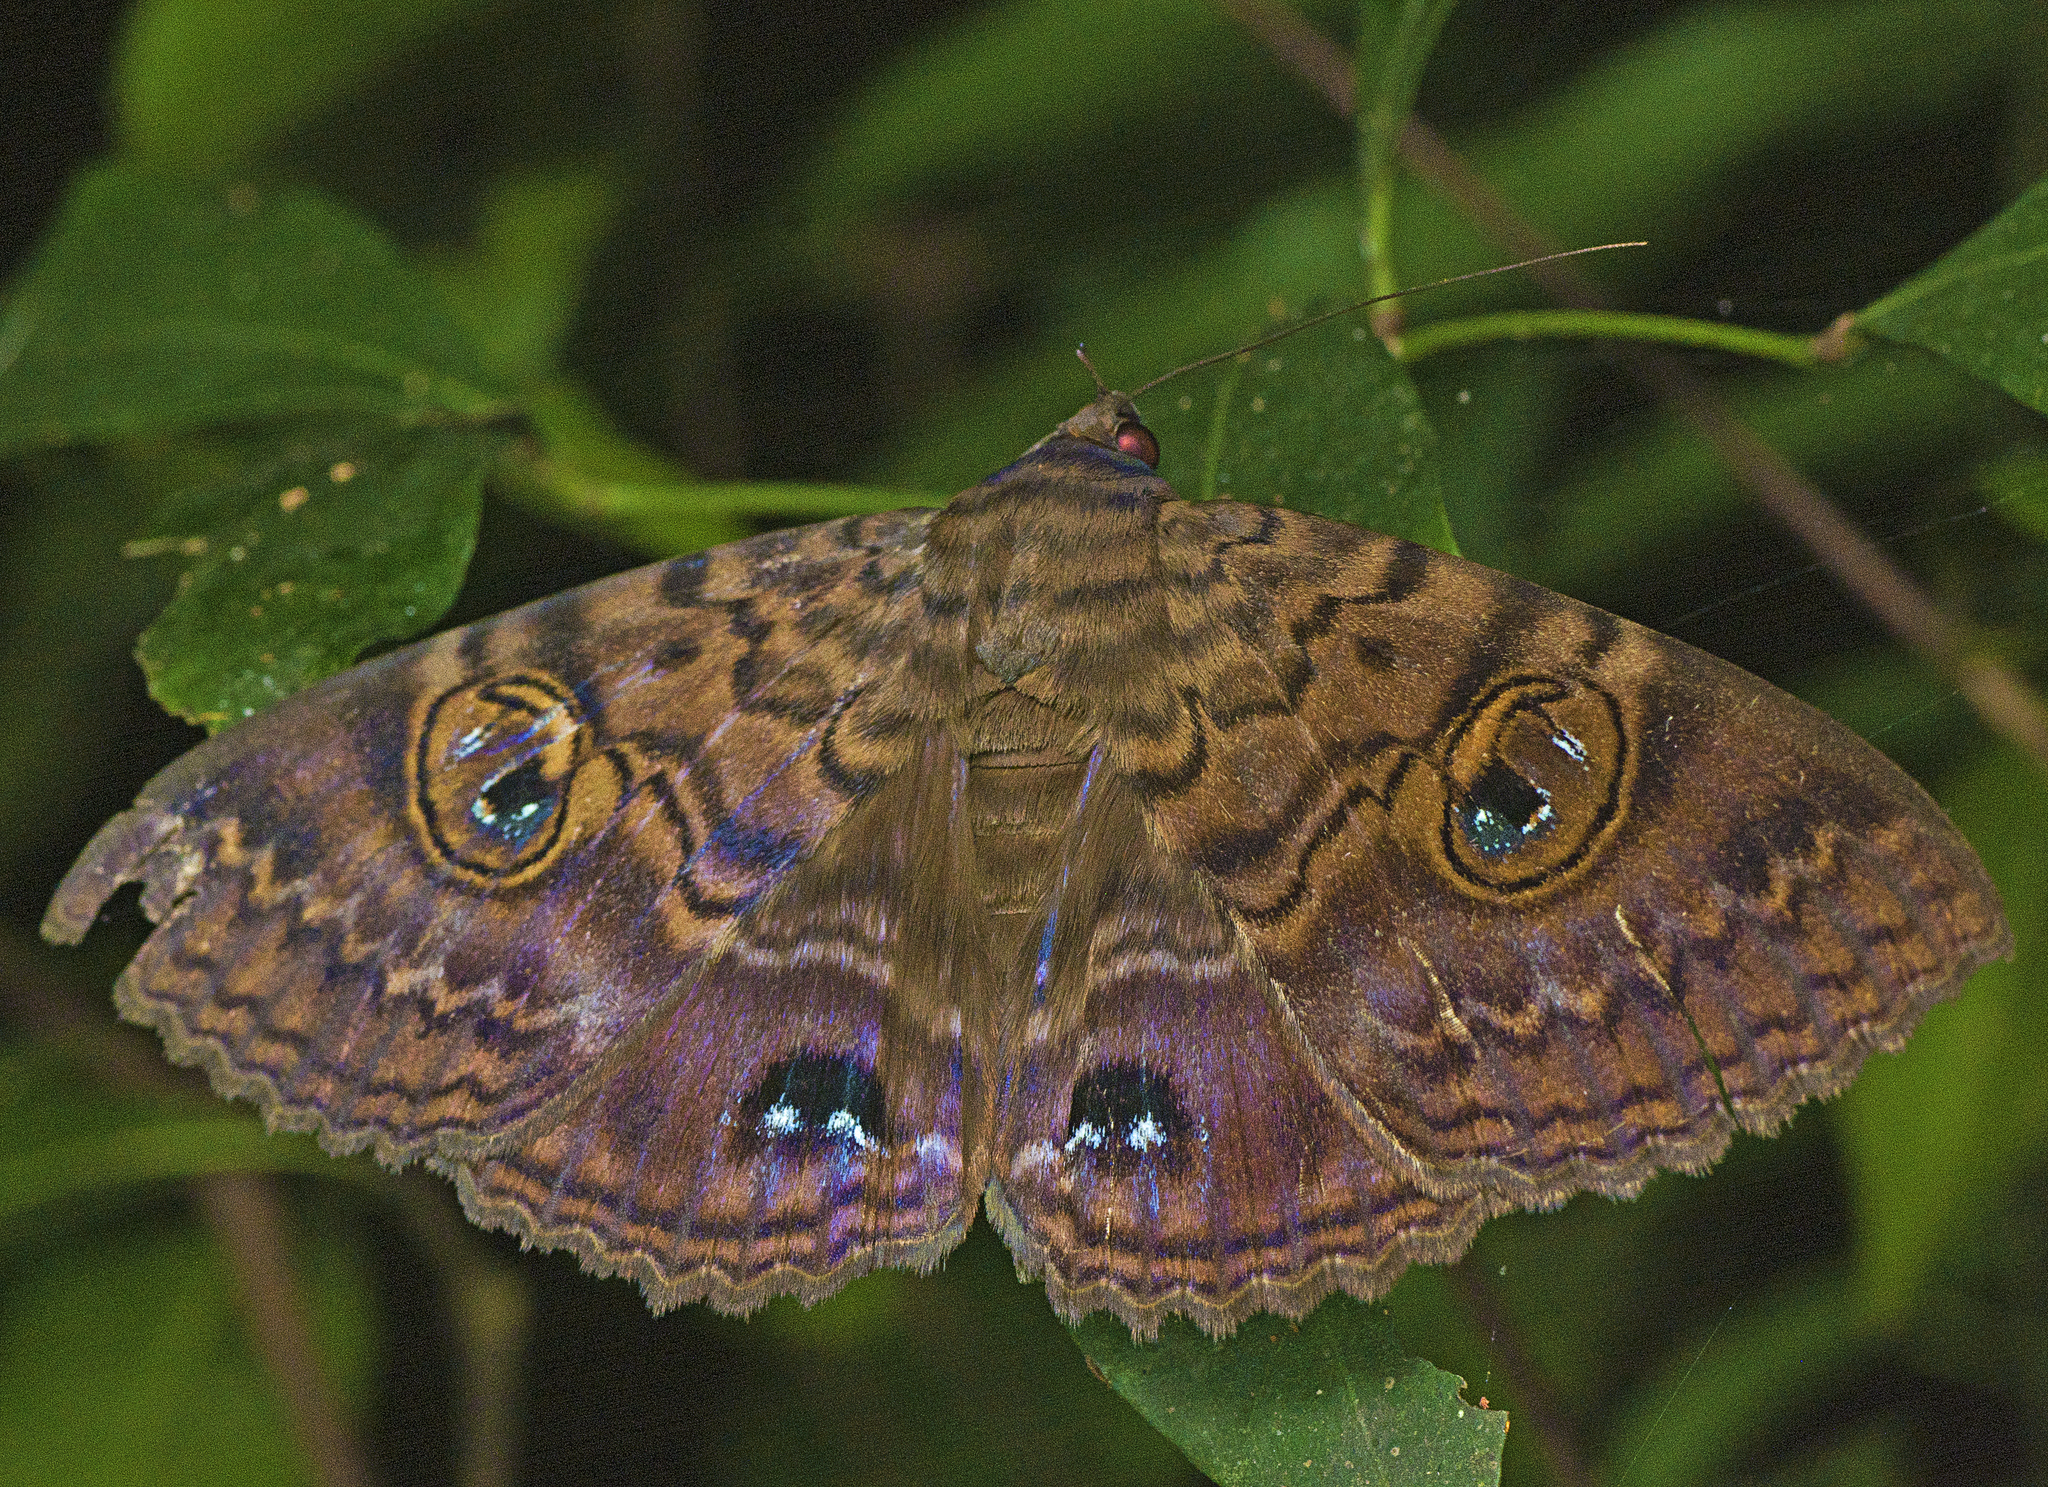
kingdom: Animalia
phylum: Arthropoda
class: Insecta
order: Lepidoptera
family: Erebidae
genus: Speiredonia
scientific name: Speiredonia spectans
